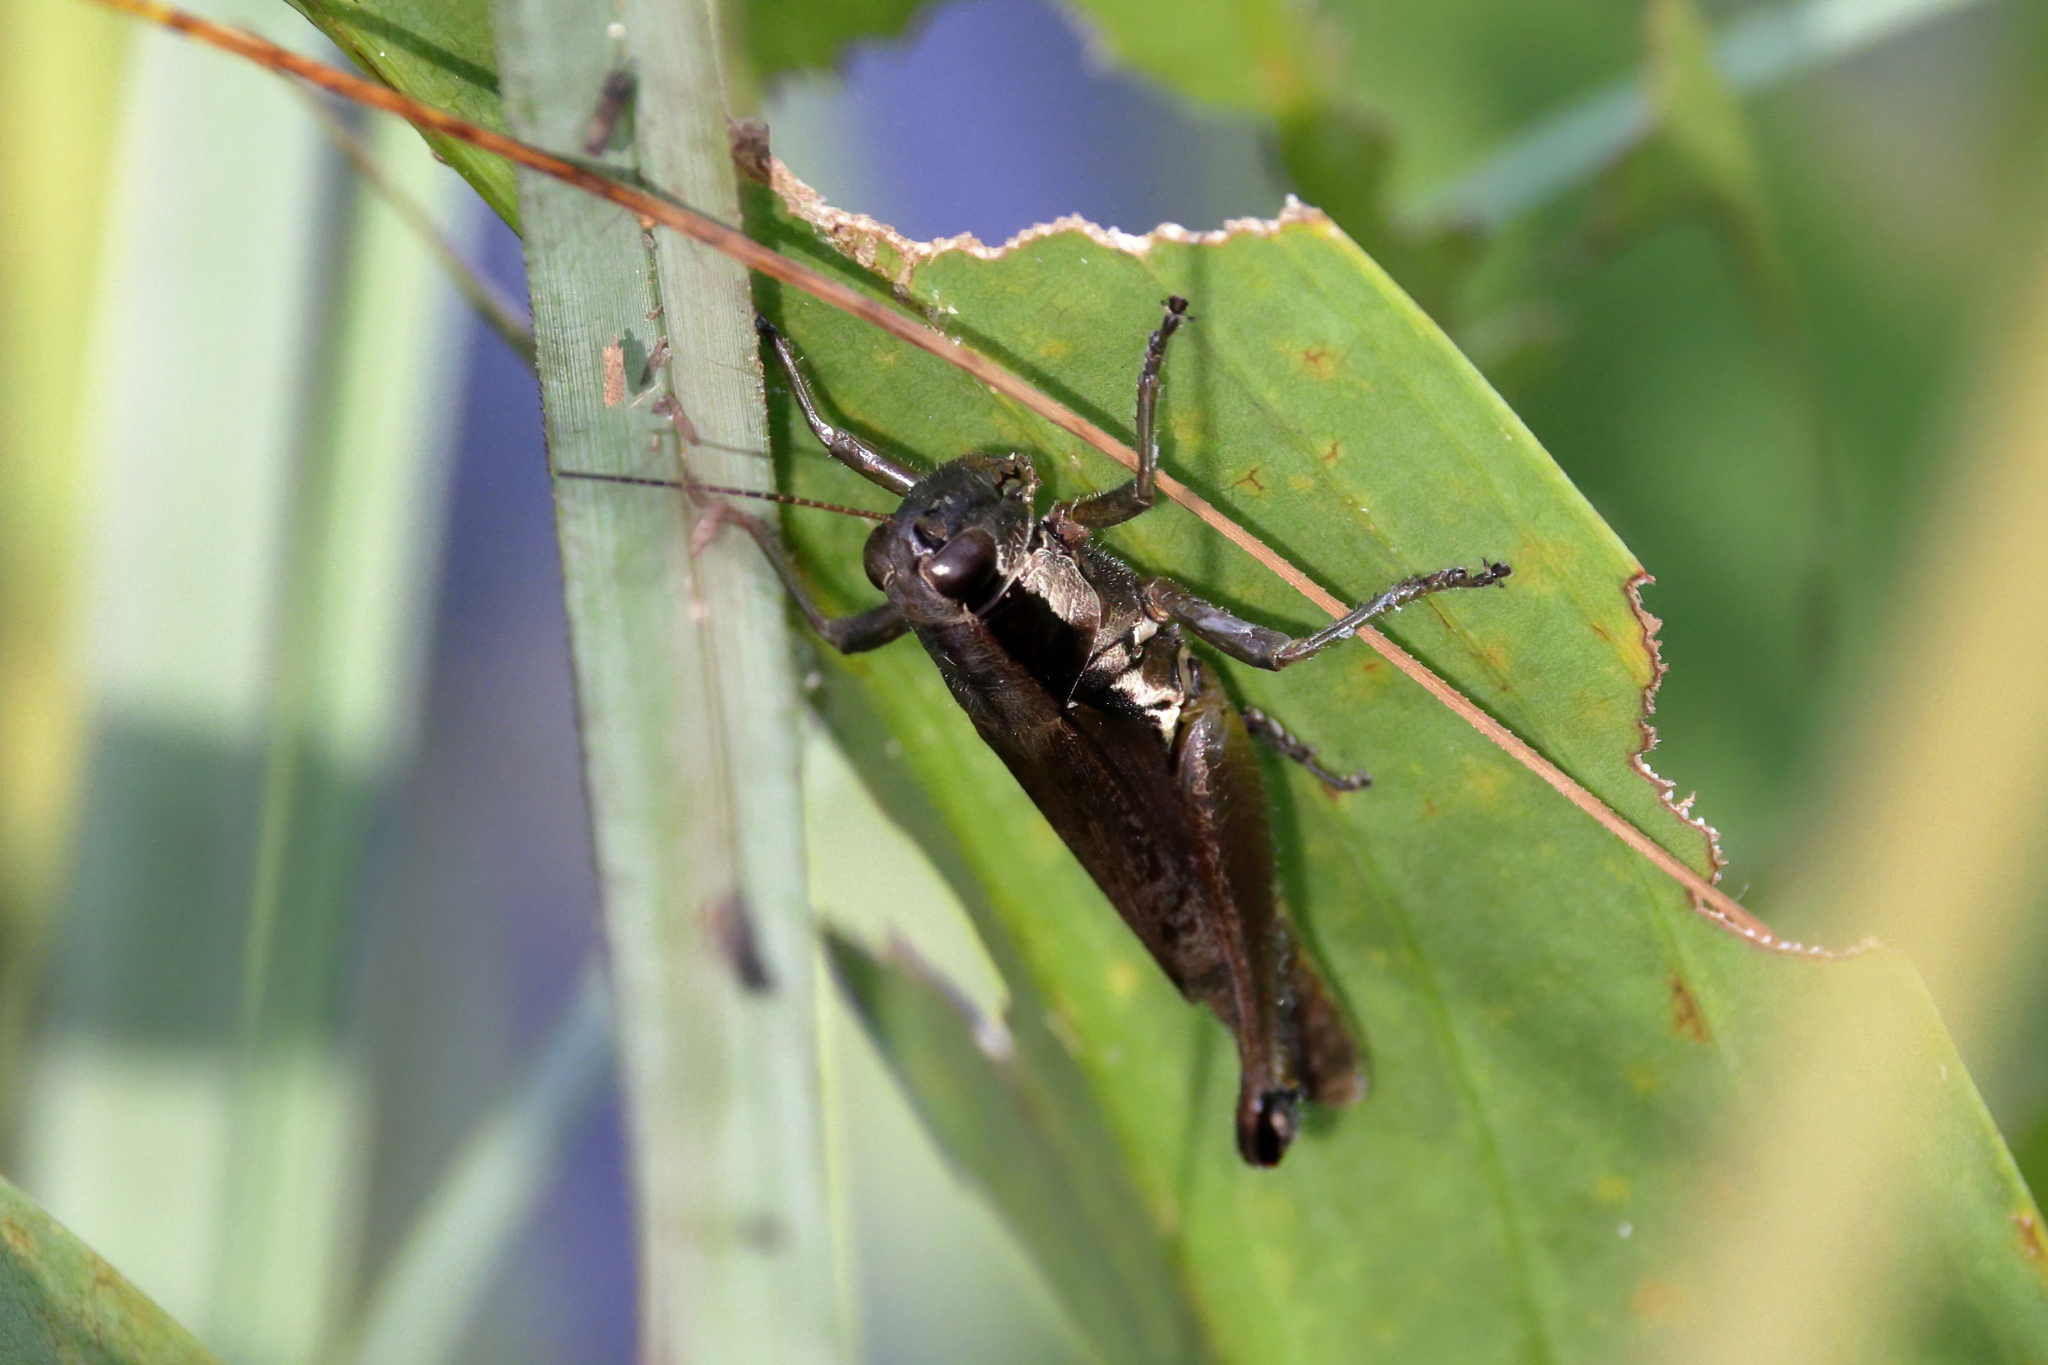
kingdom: Animalia
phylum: Arthropoda
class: Insecta
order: Orthoptera
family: Acrididae
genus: Paroxya
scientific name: Paroxya clavuligera
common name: Olive-green swamp grasshopper
